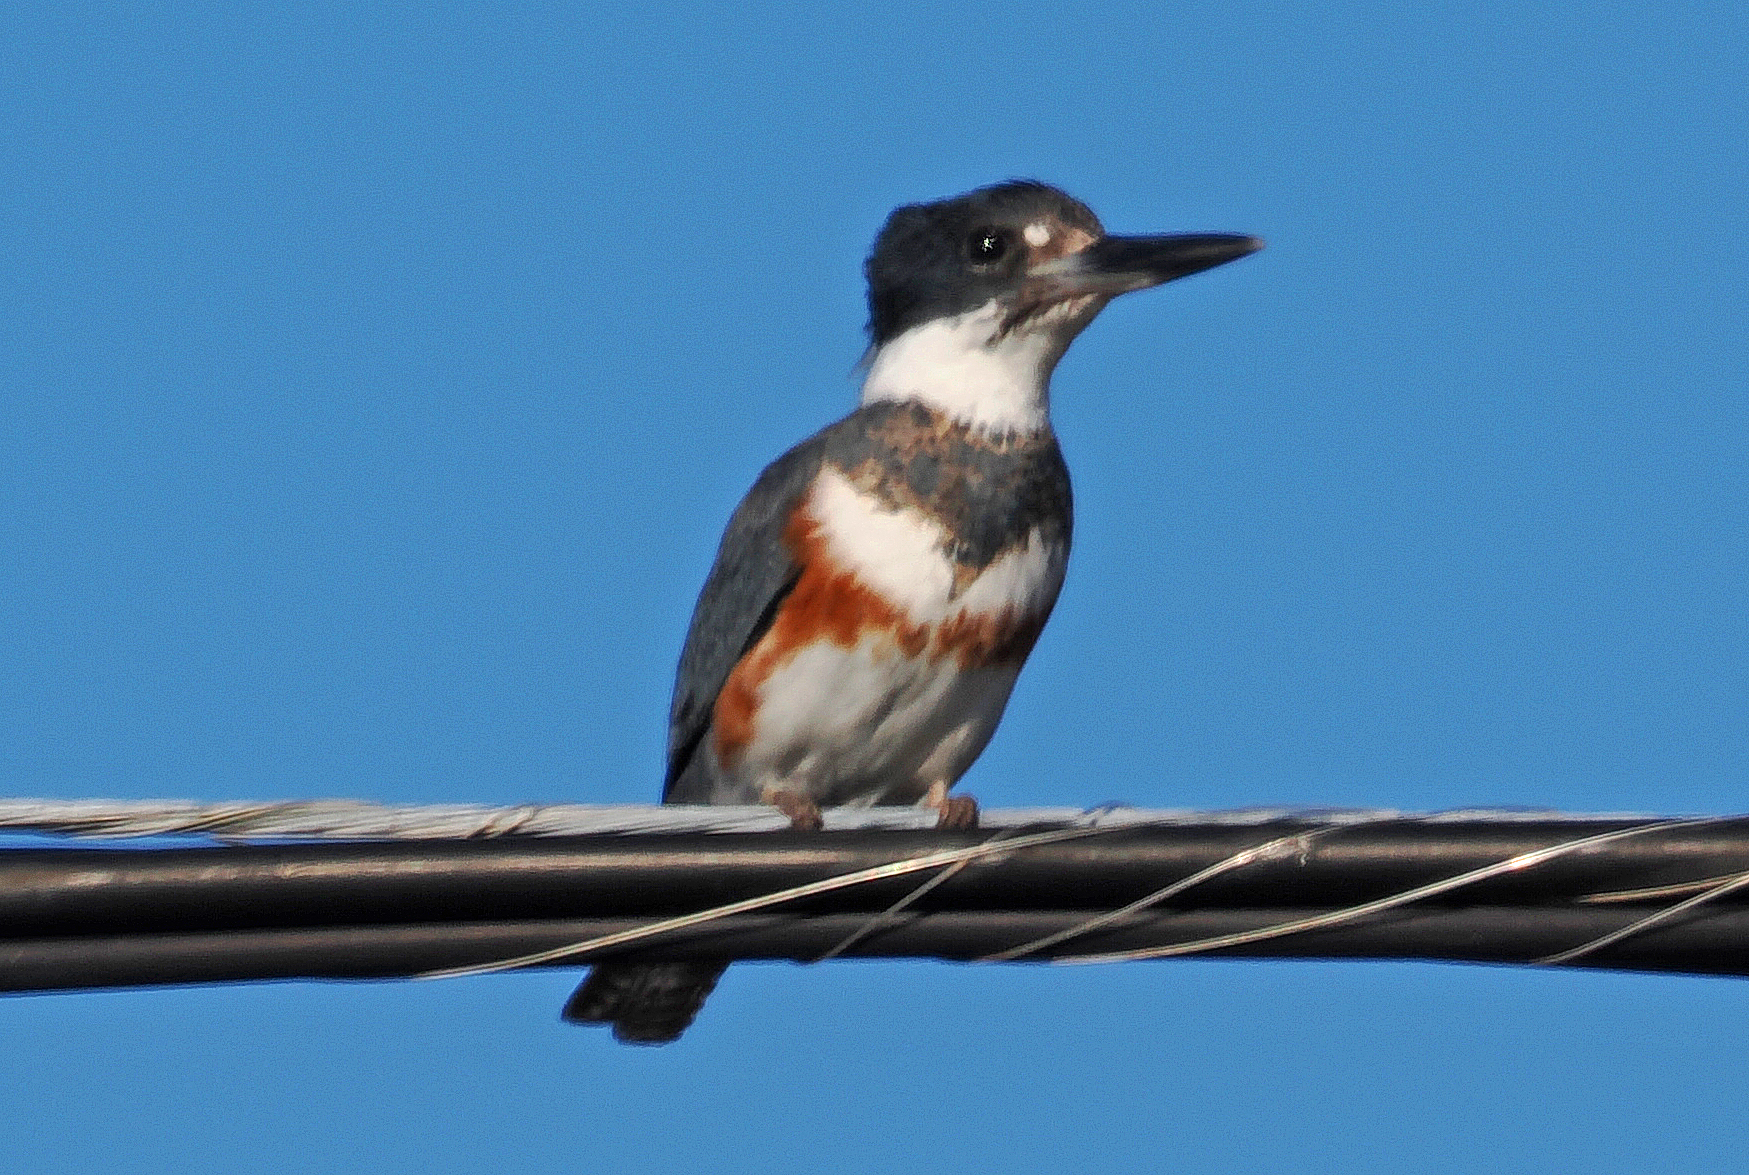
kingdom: Animalia
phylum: Chordata
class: Aves
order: Coraciiformes
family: Alcedinidae
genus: Megaceryle
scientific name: Megaceryle alcyon
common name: Belted kingfisher
